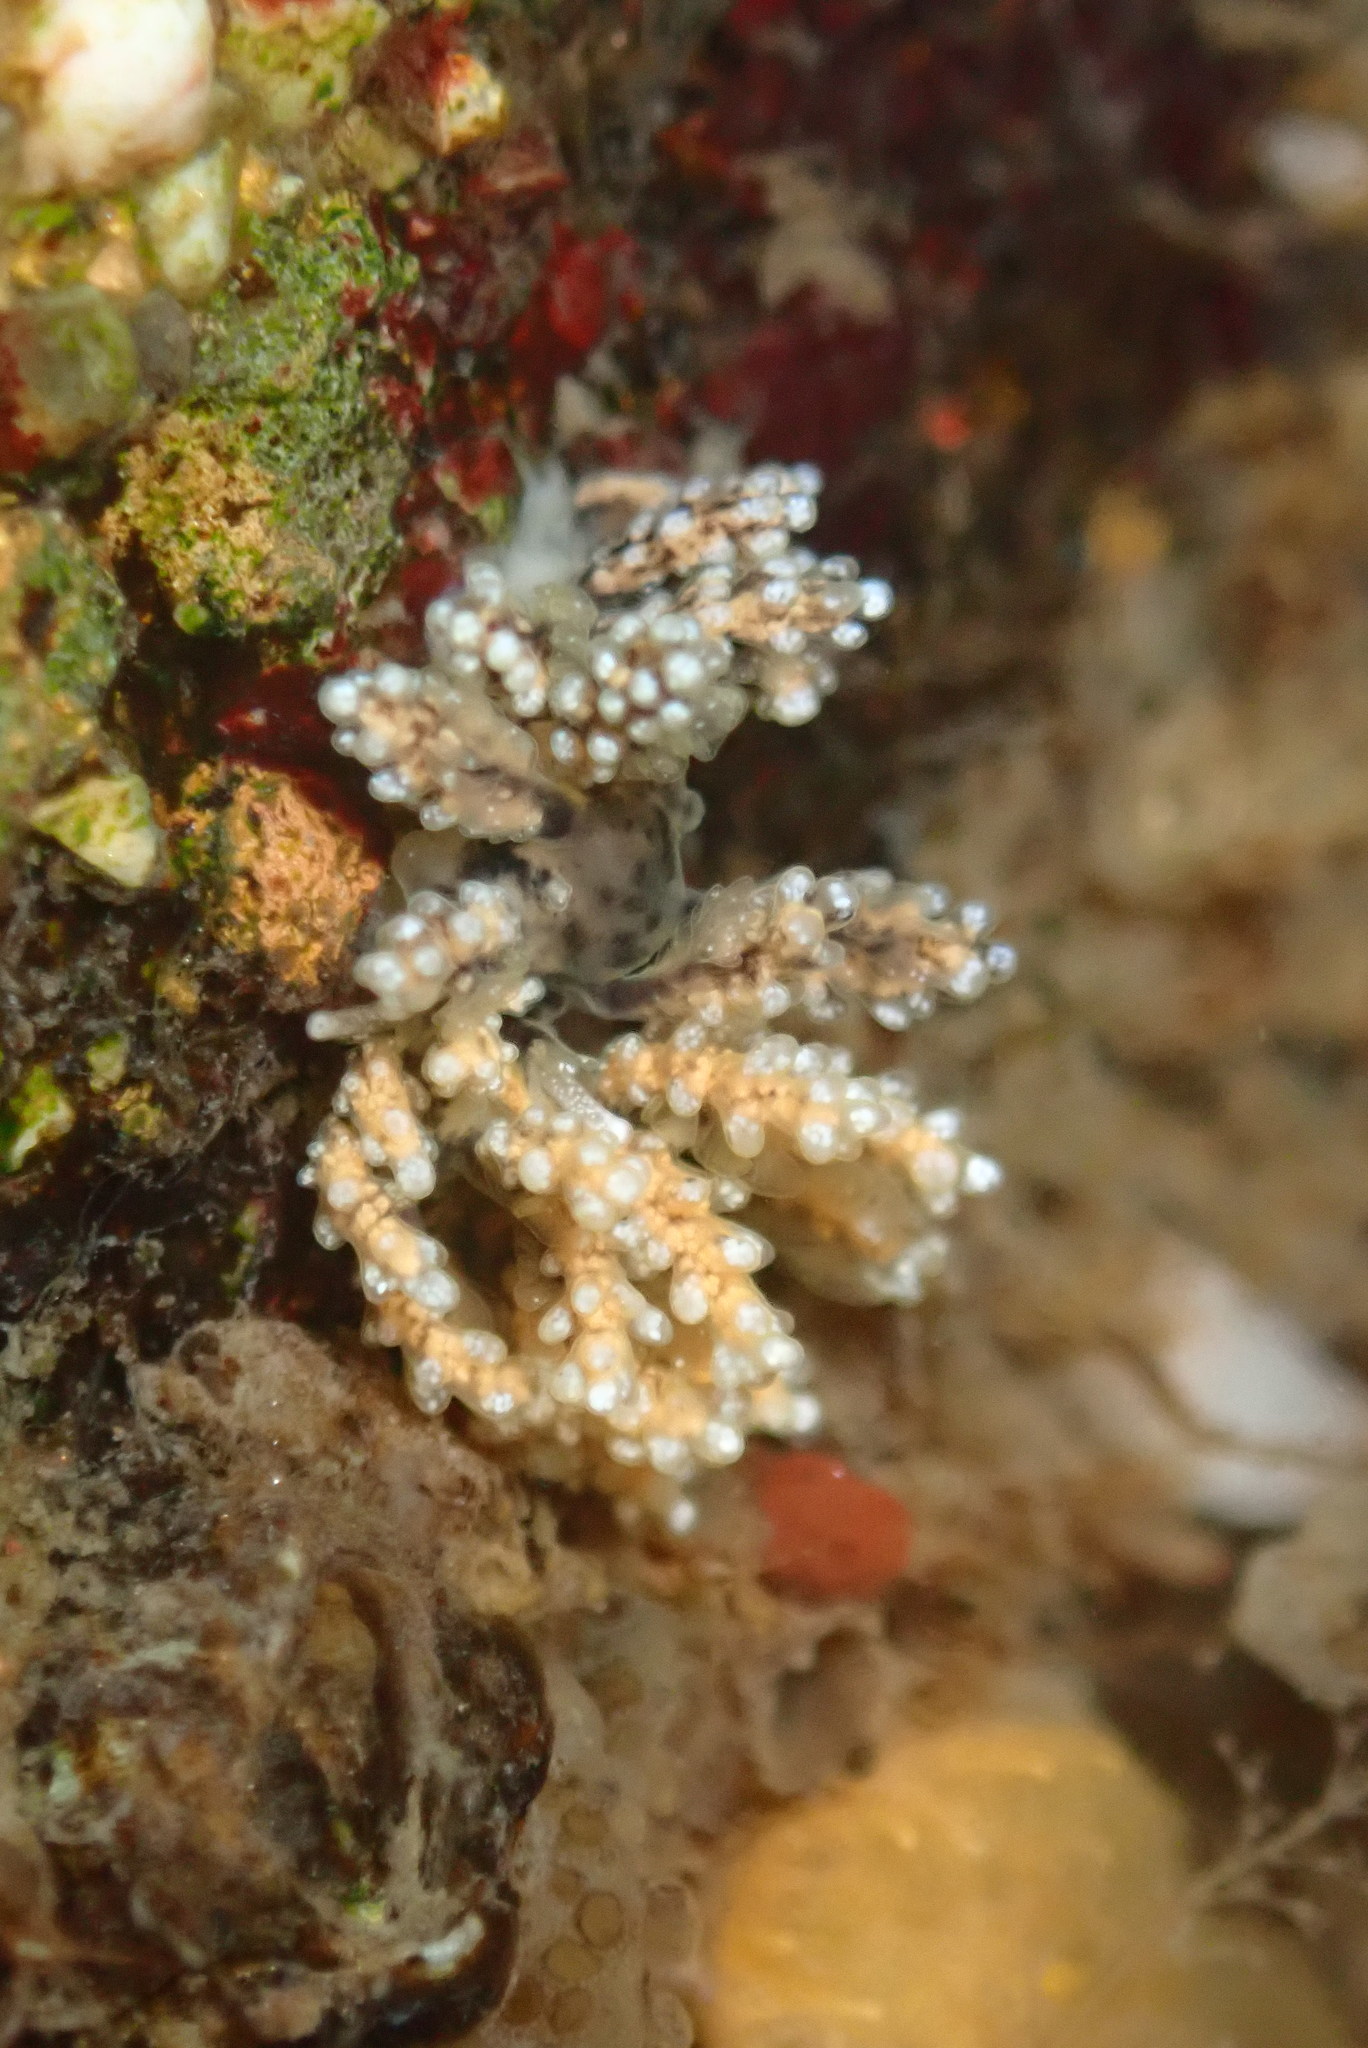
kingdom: Animalia
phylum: Mollusca
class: Gastropoda
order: Nudibranchia
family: Dotidae
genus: Doto
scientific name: Doto kya
